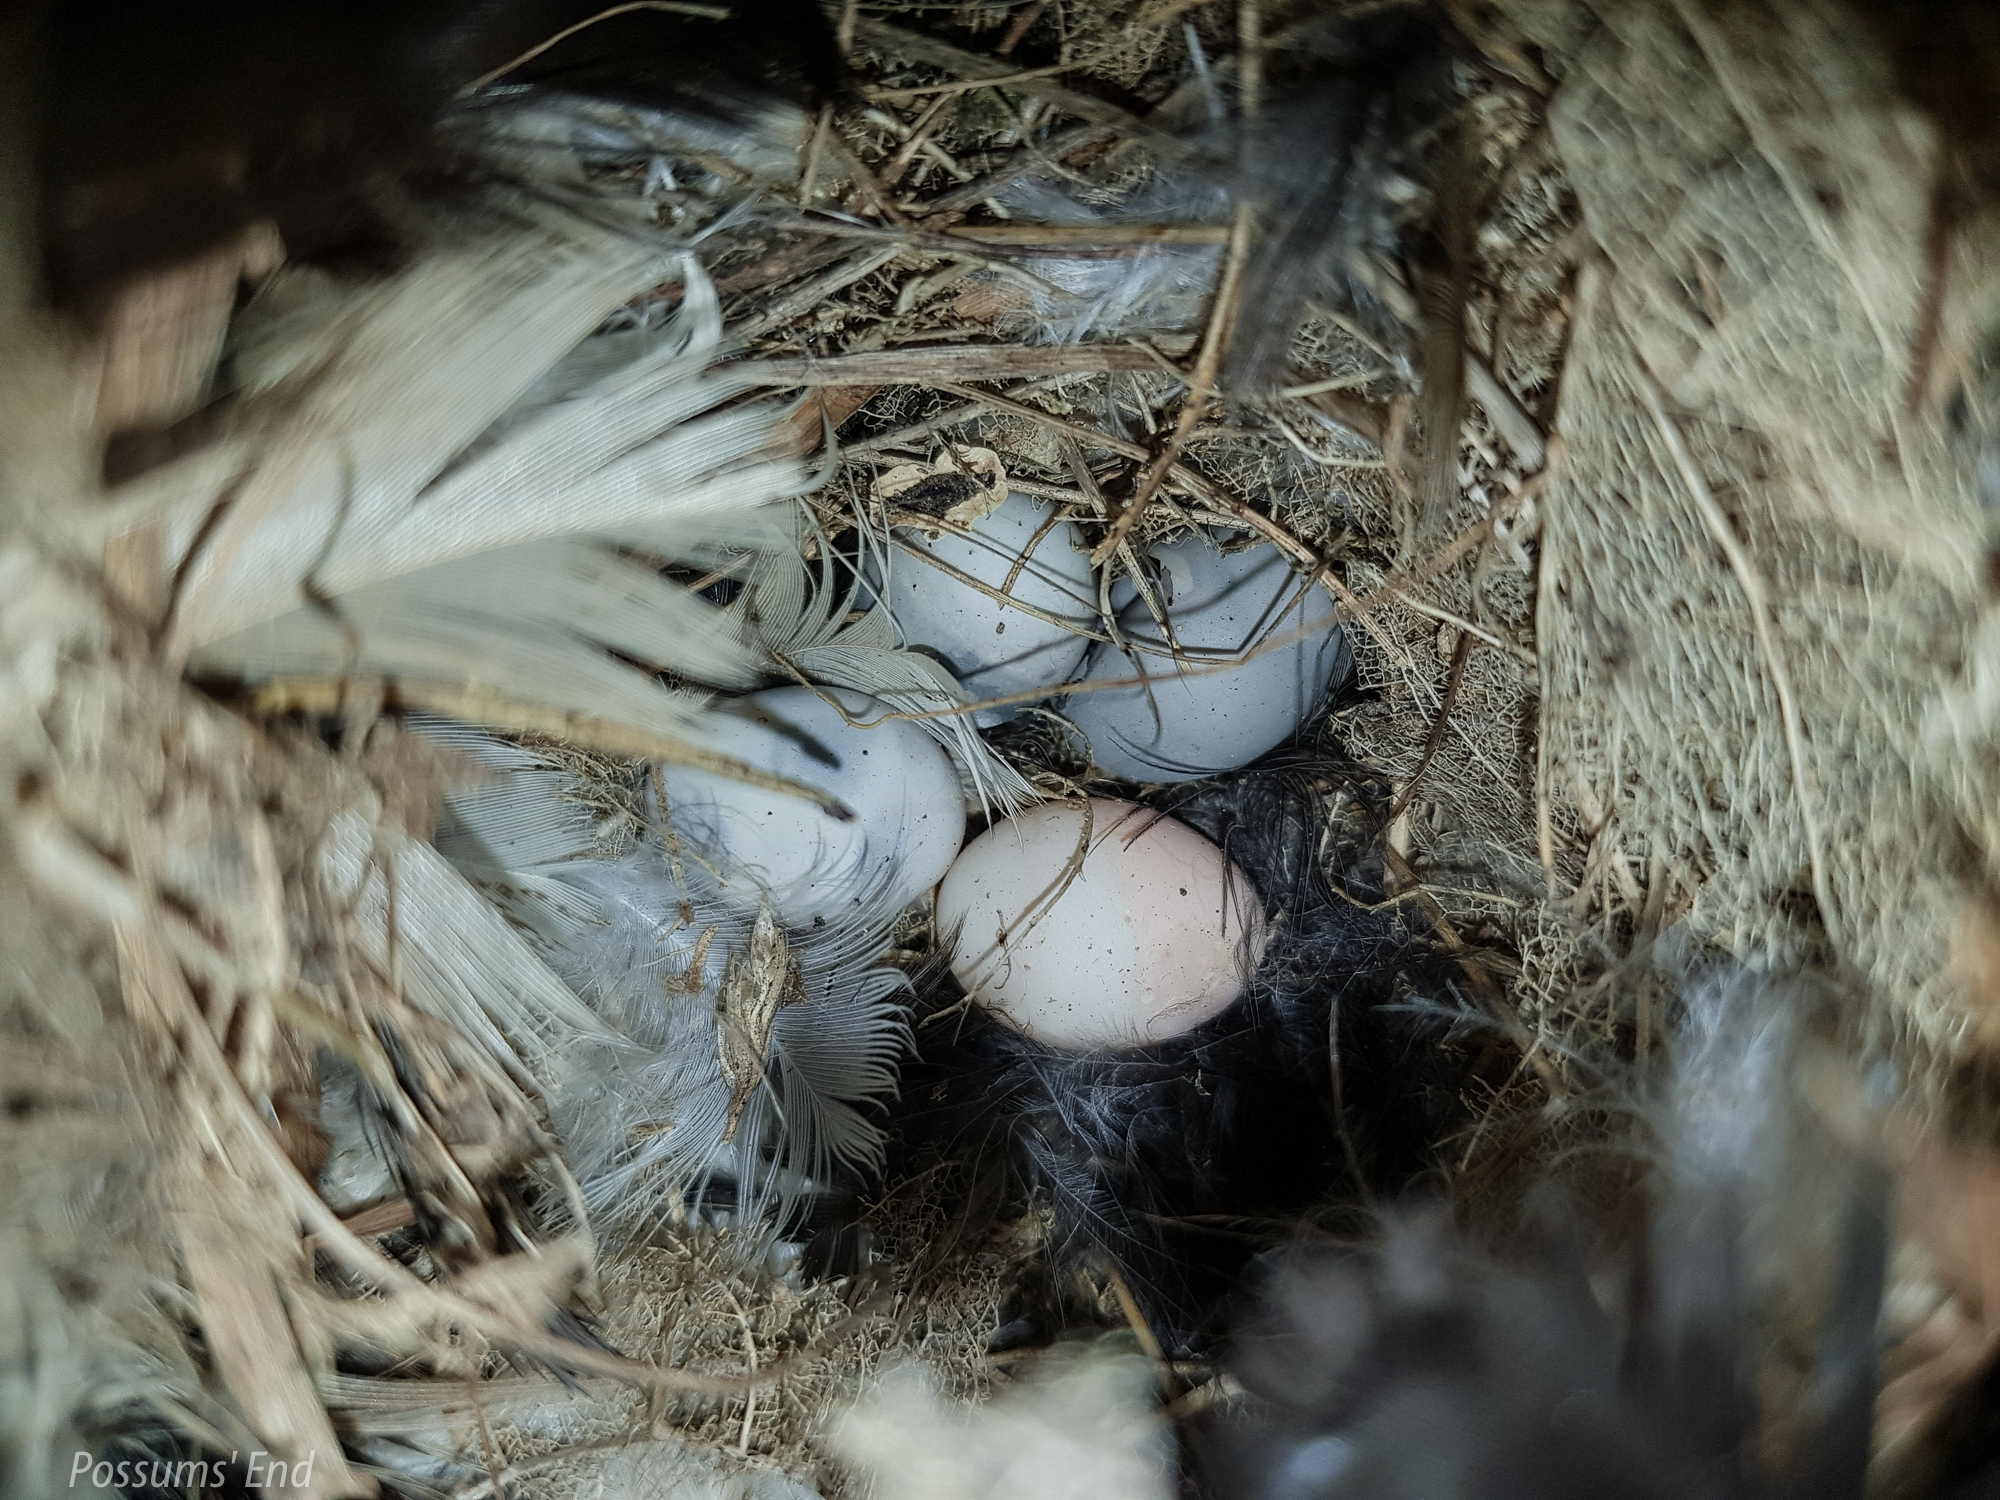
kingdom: Animalia
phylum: Chordata
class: Aves
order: Passeriformes
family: Acanthisittidae
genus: Acanthisitta
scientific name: Acanthisitta chloris
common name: Rifleman
